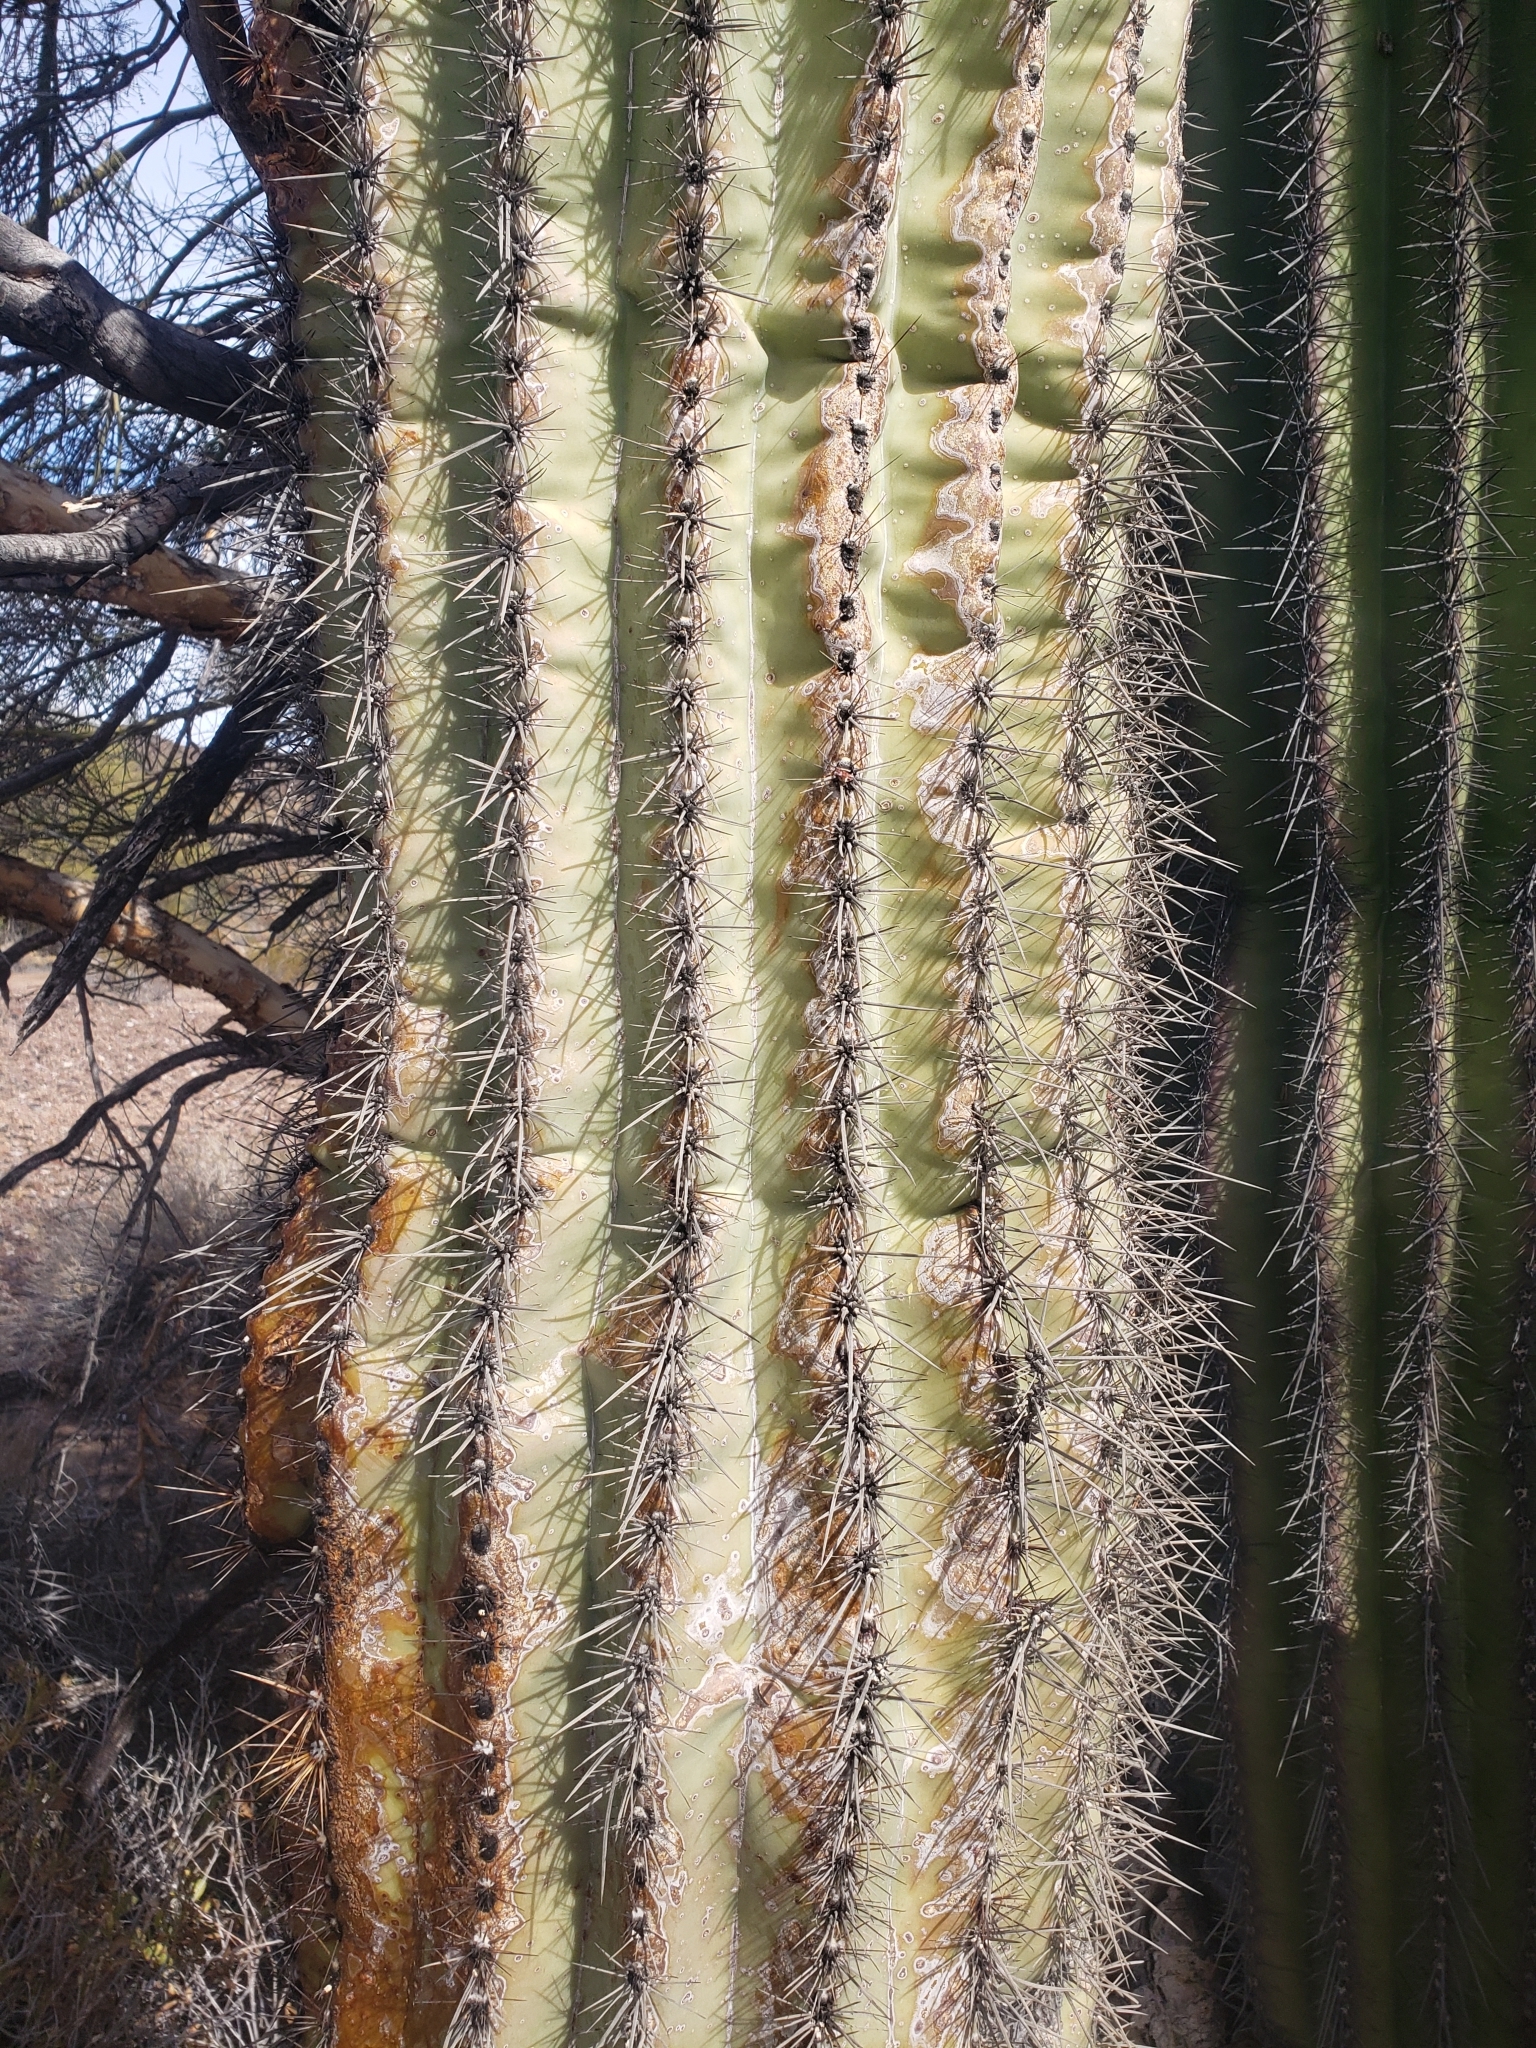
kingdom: Plantae
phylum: Tracheophyta
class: Magnoliopsida
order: Caryophyllales
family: Cactaceae
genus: Carnegiea
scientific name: Carnegiea gigantea
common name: Saguaro
